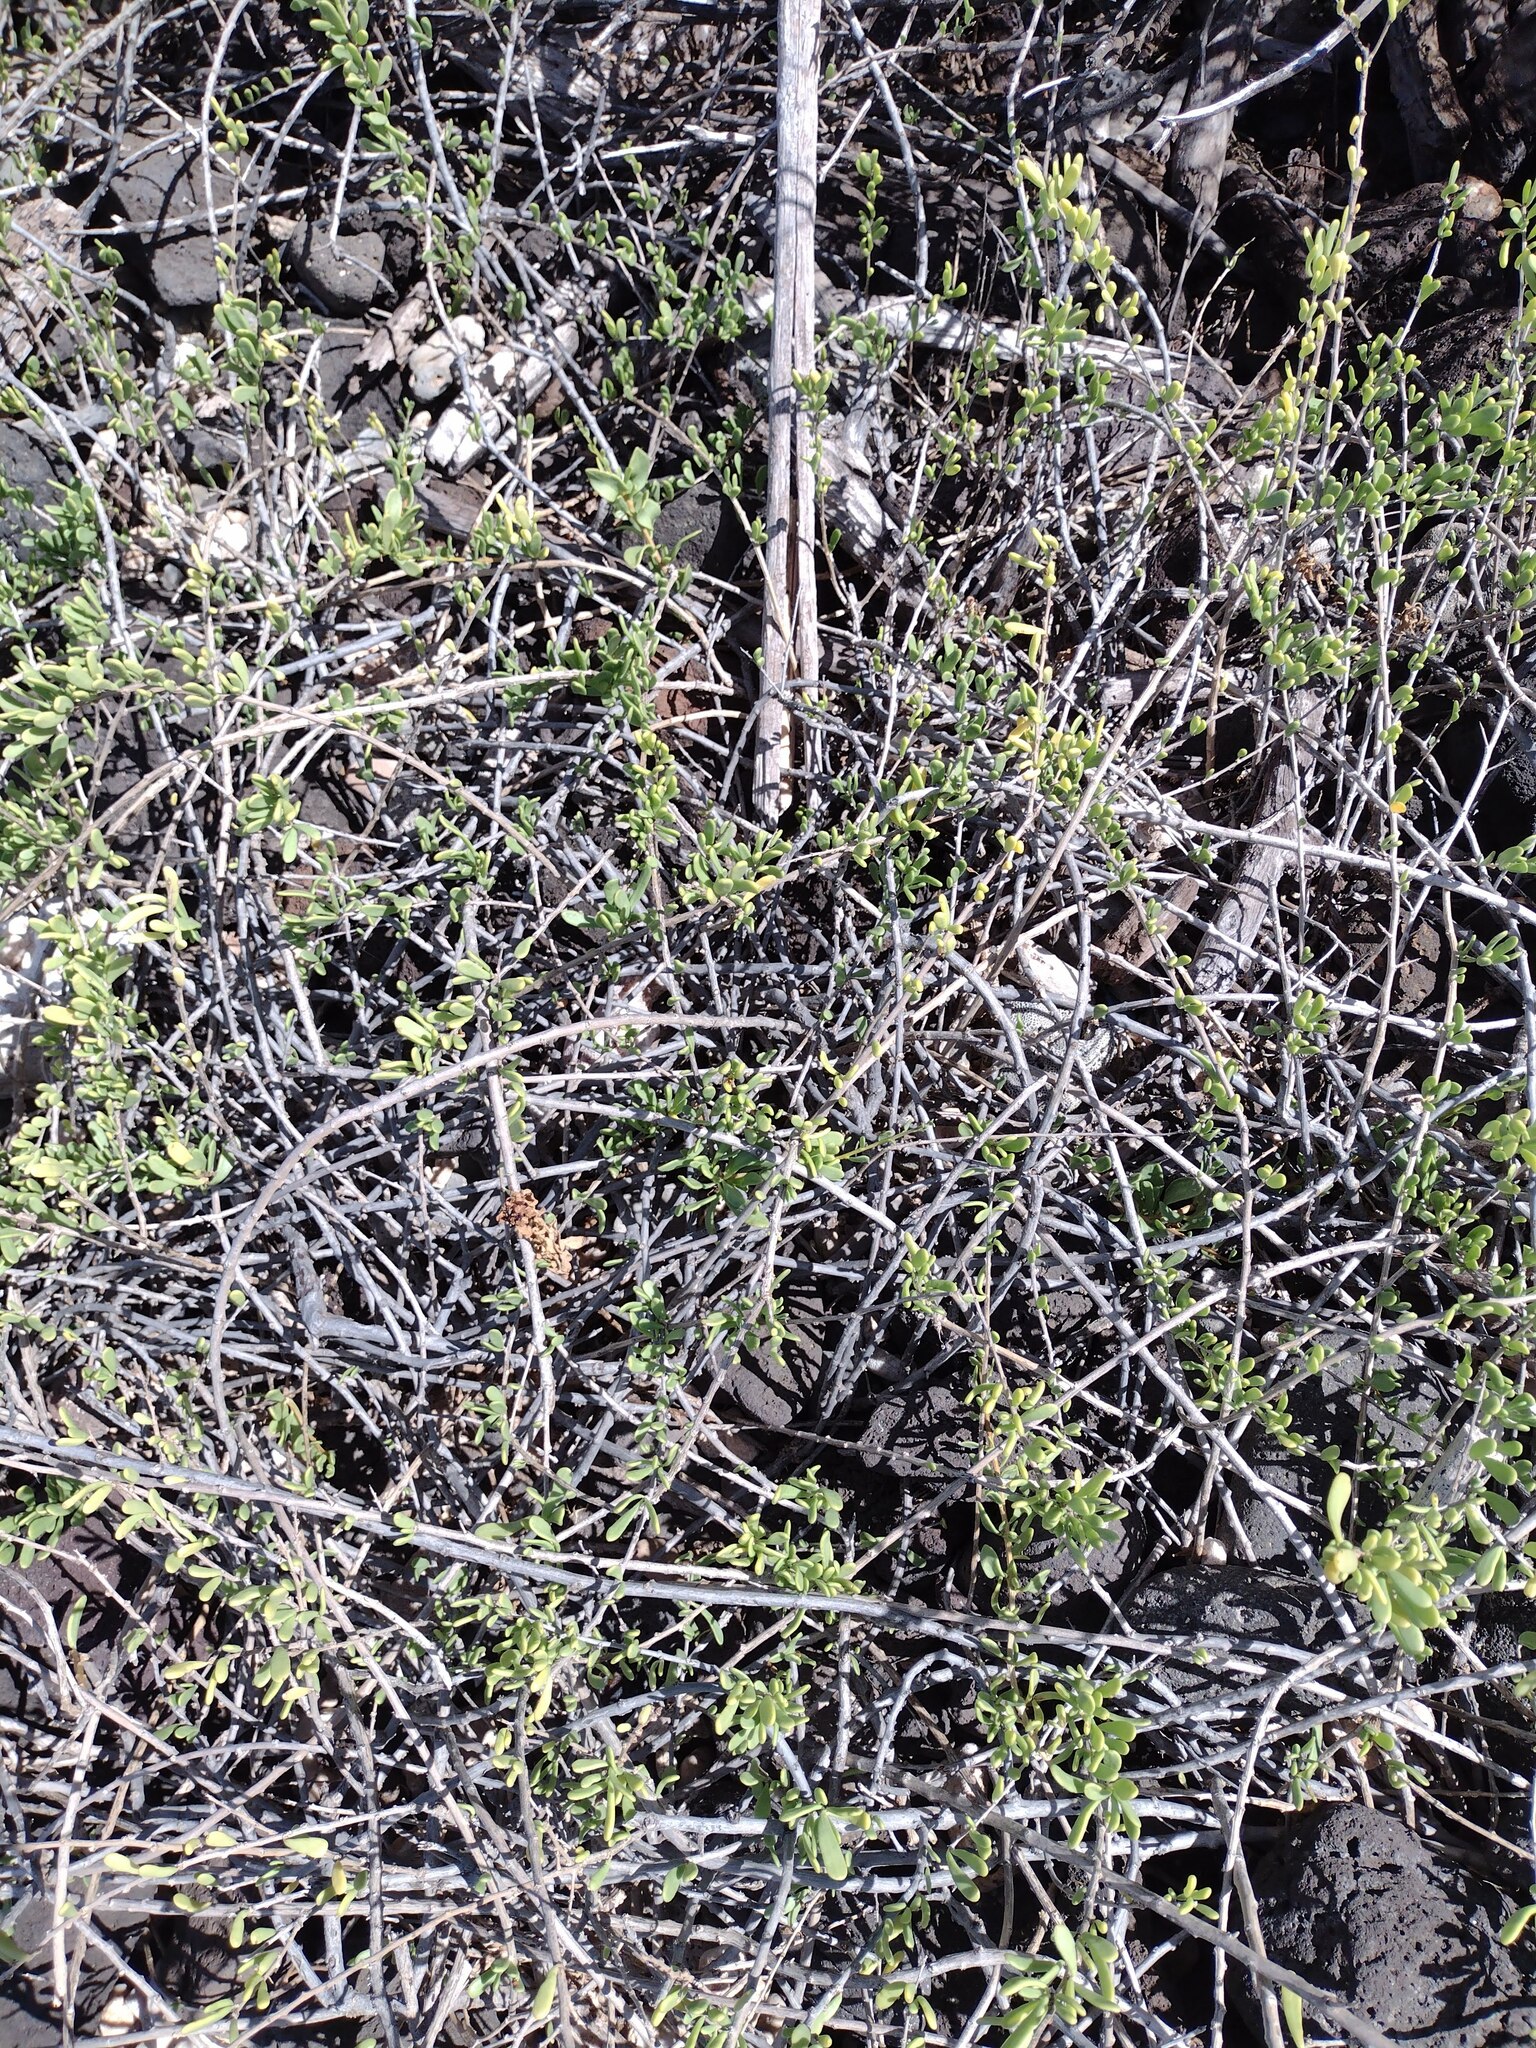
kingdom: Plantae
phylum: Tracheophyta
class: Magnoliopsida
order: Solanales
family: Solanaceae
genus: Lycium
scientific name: Lycium sandwicense
